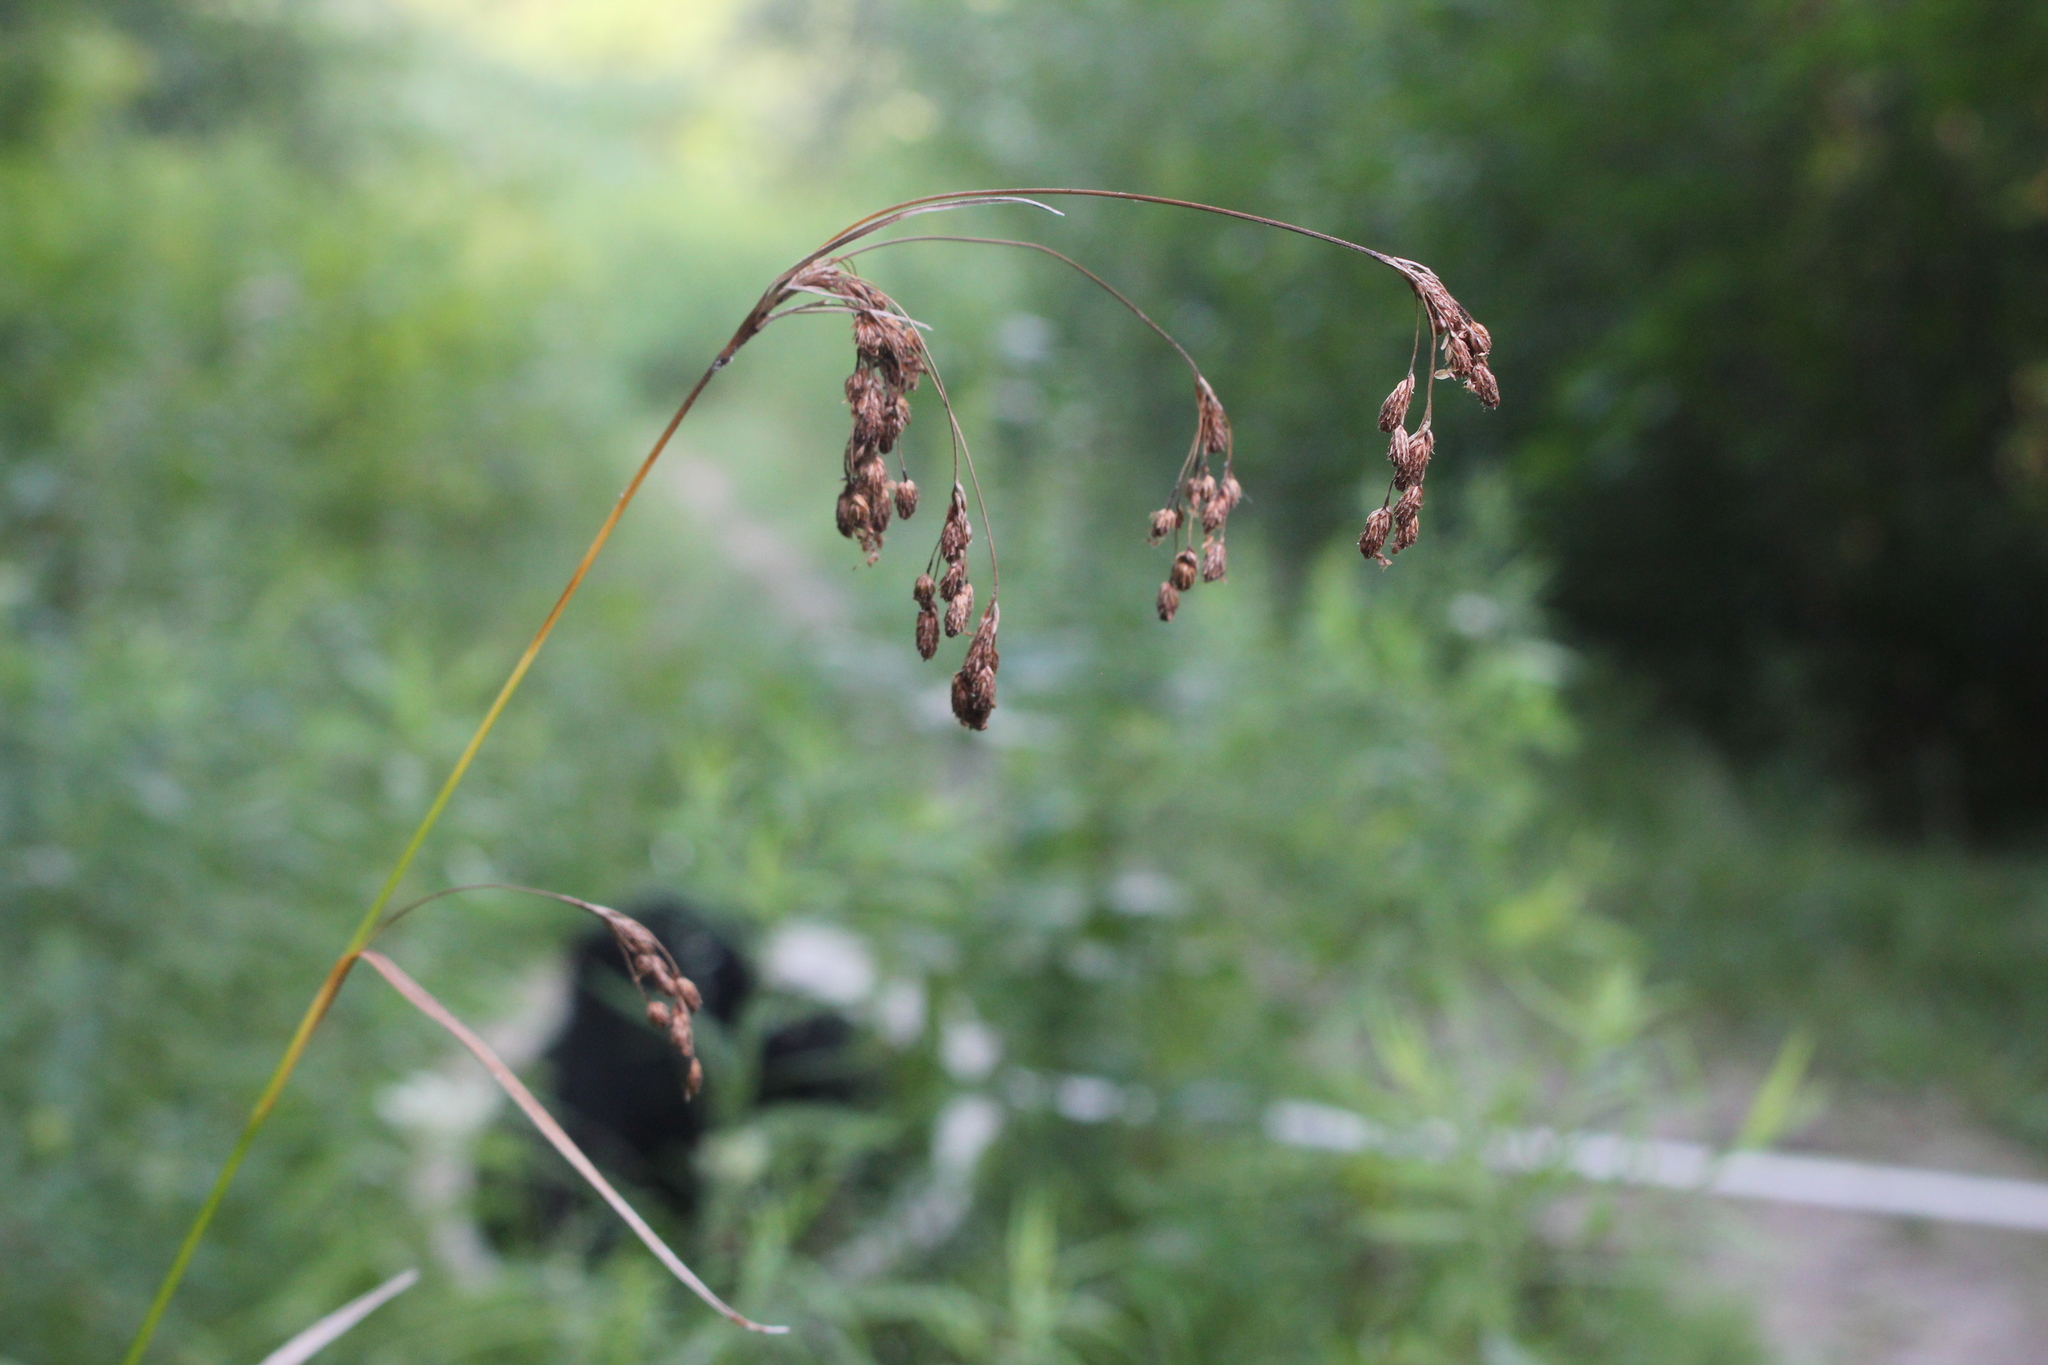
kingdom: Plantae
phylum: Tracheophyta
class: Liliopsida
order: Poales
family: Cyperaceae
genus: Scirpus
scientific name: Scirpus pendulus
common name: Nodding bulrush
